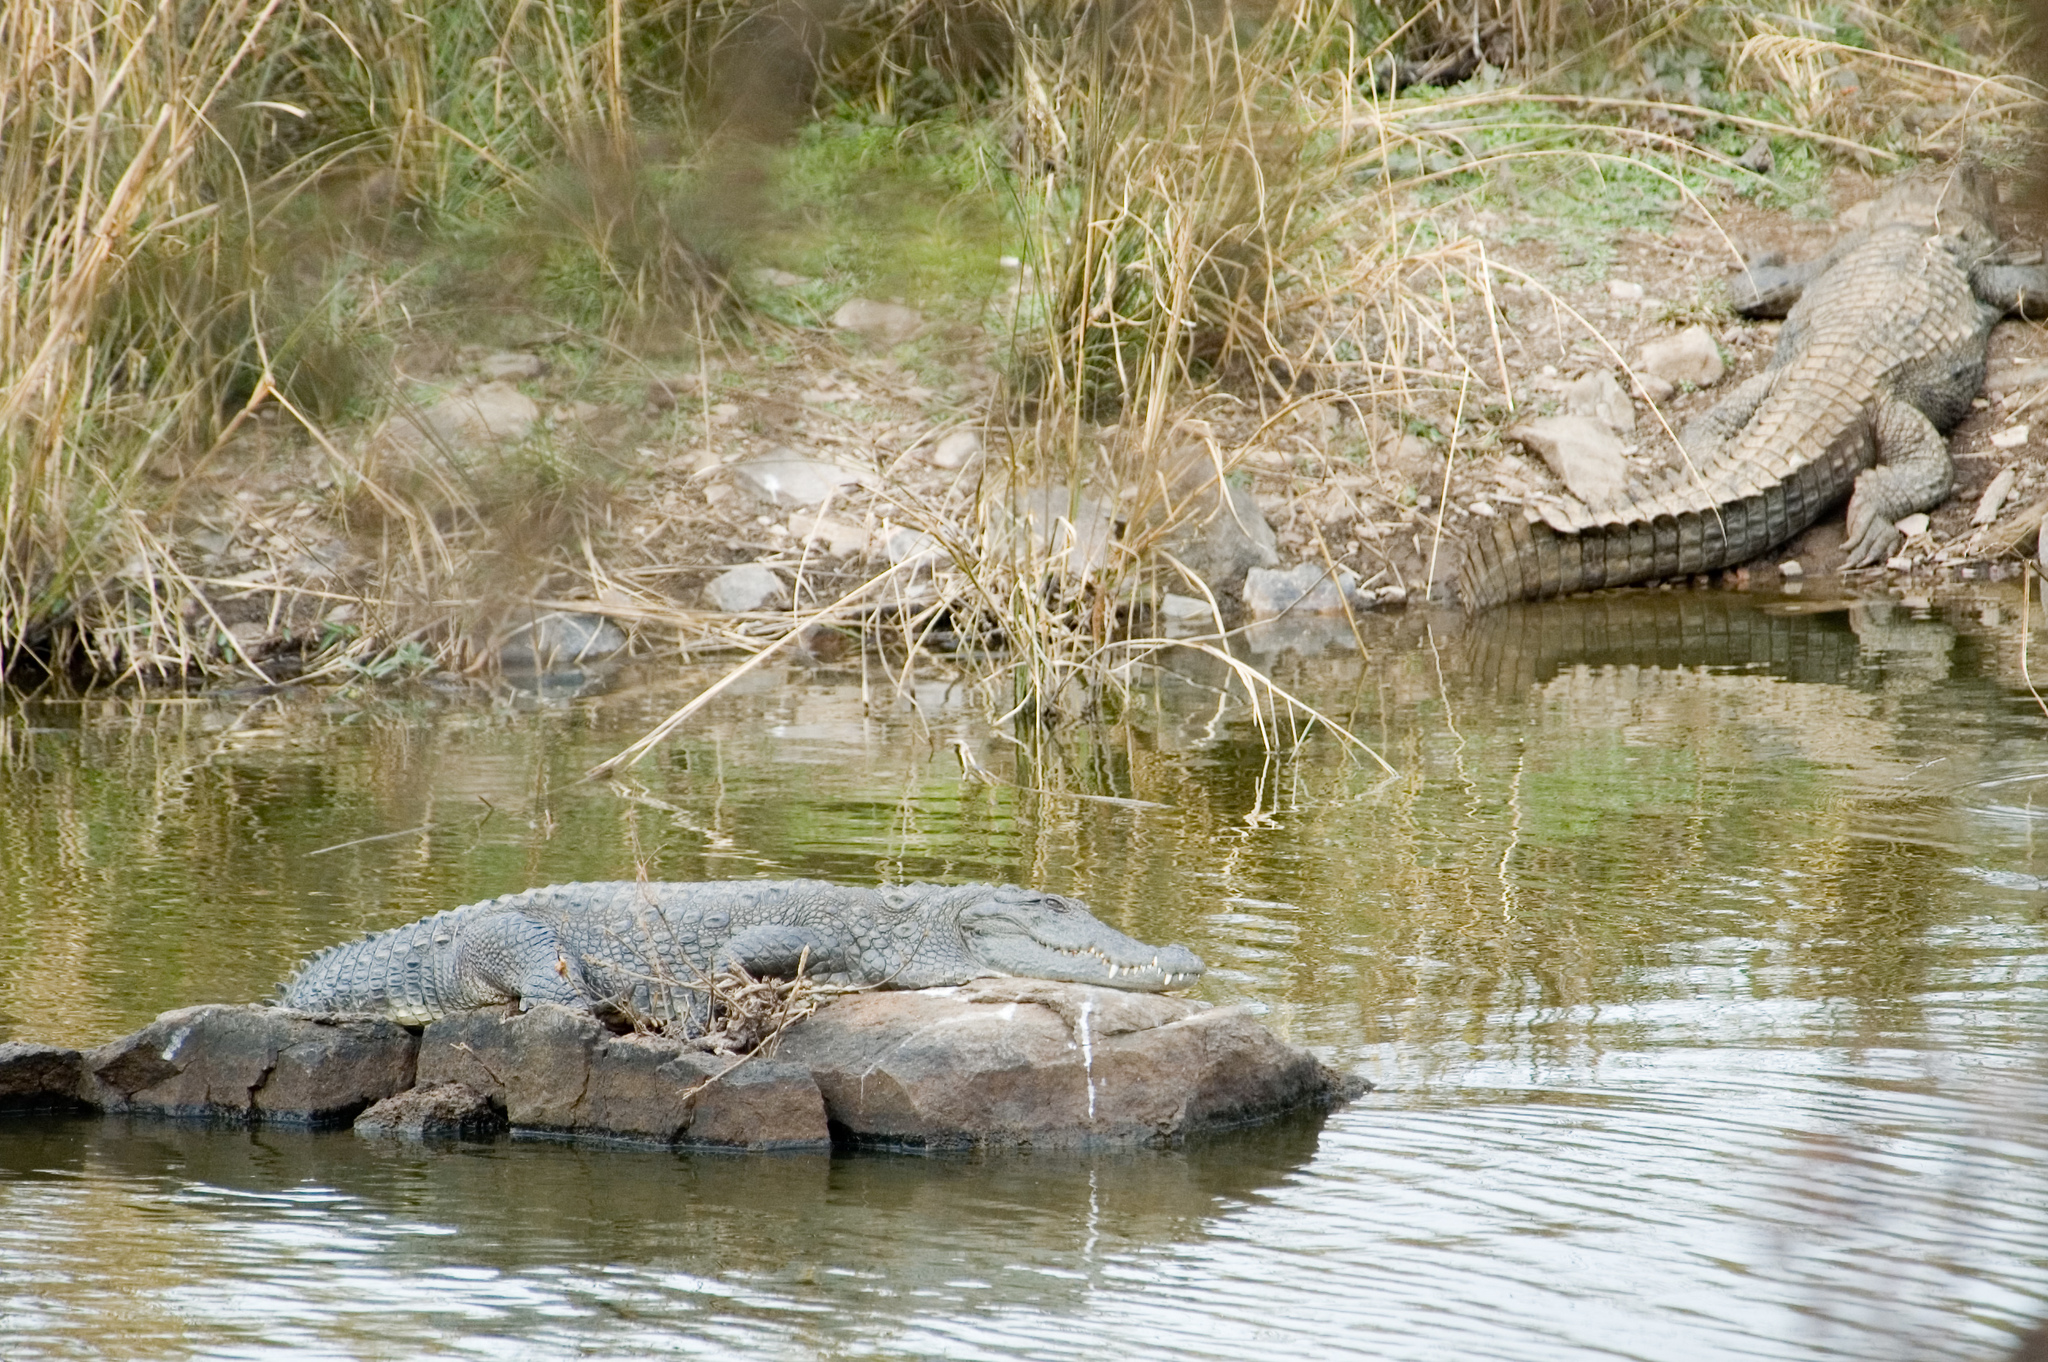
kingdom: Animalia
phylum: Chordata
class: Crocodylia
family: Crocodylidae
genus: Crocodylus
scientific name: Crocodylus palustris
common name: Mugger crocodile
